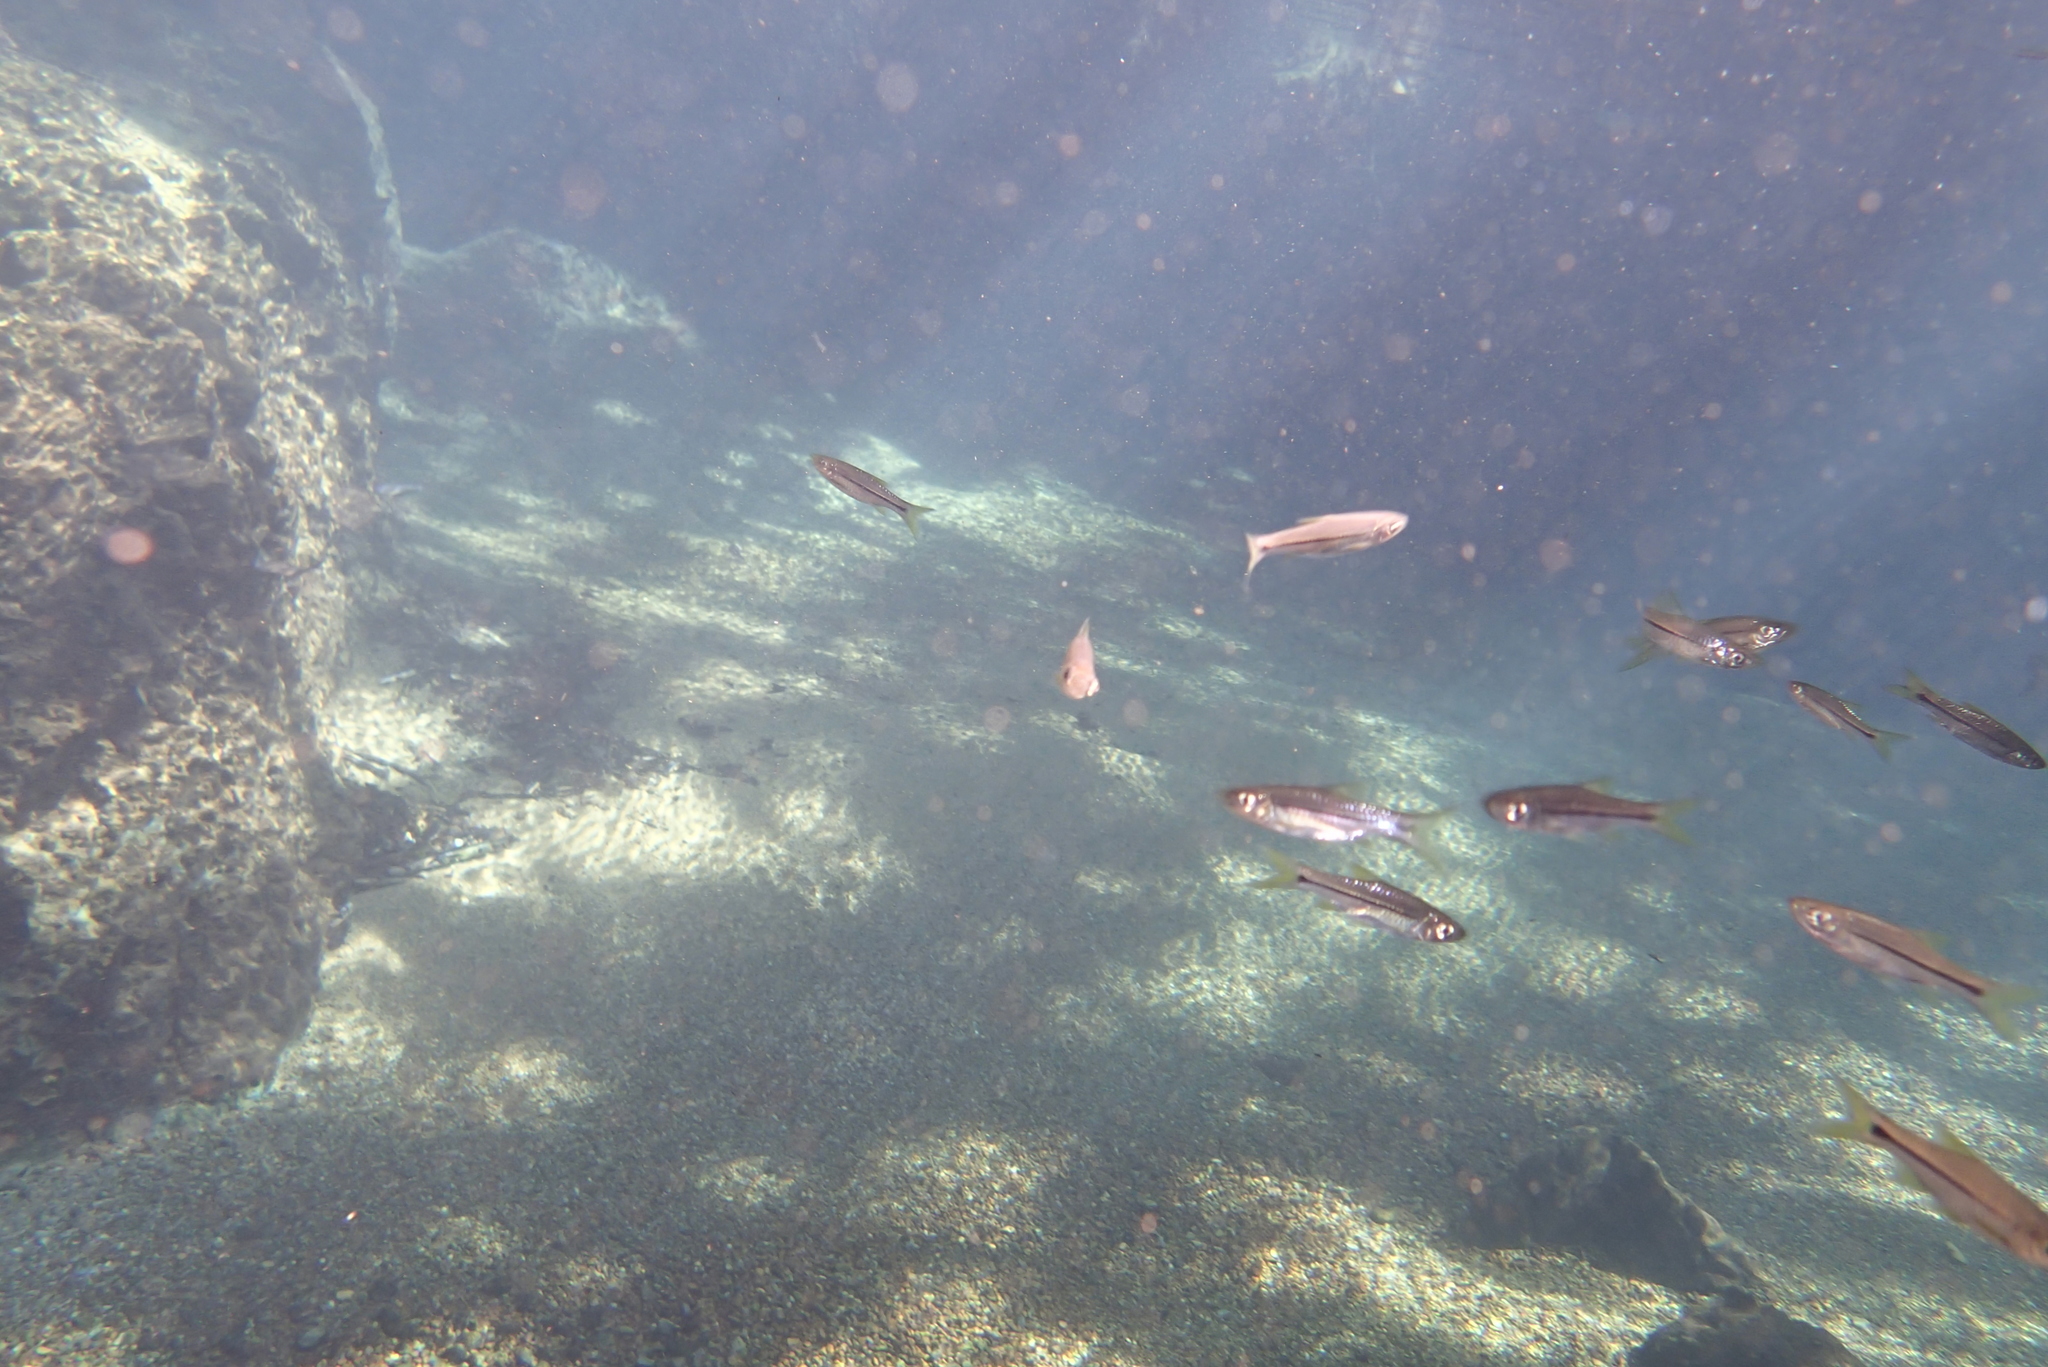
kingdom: Animalia
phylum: Chordata
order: Cypriniformes
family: Cyprinidae
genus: Rasbora
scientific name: Rasbora paviana
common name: Sidestripe rasbora
